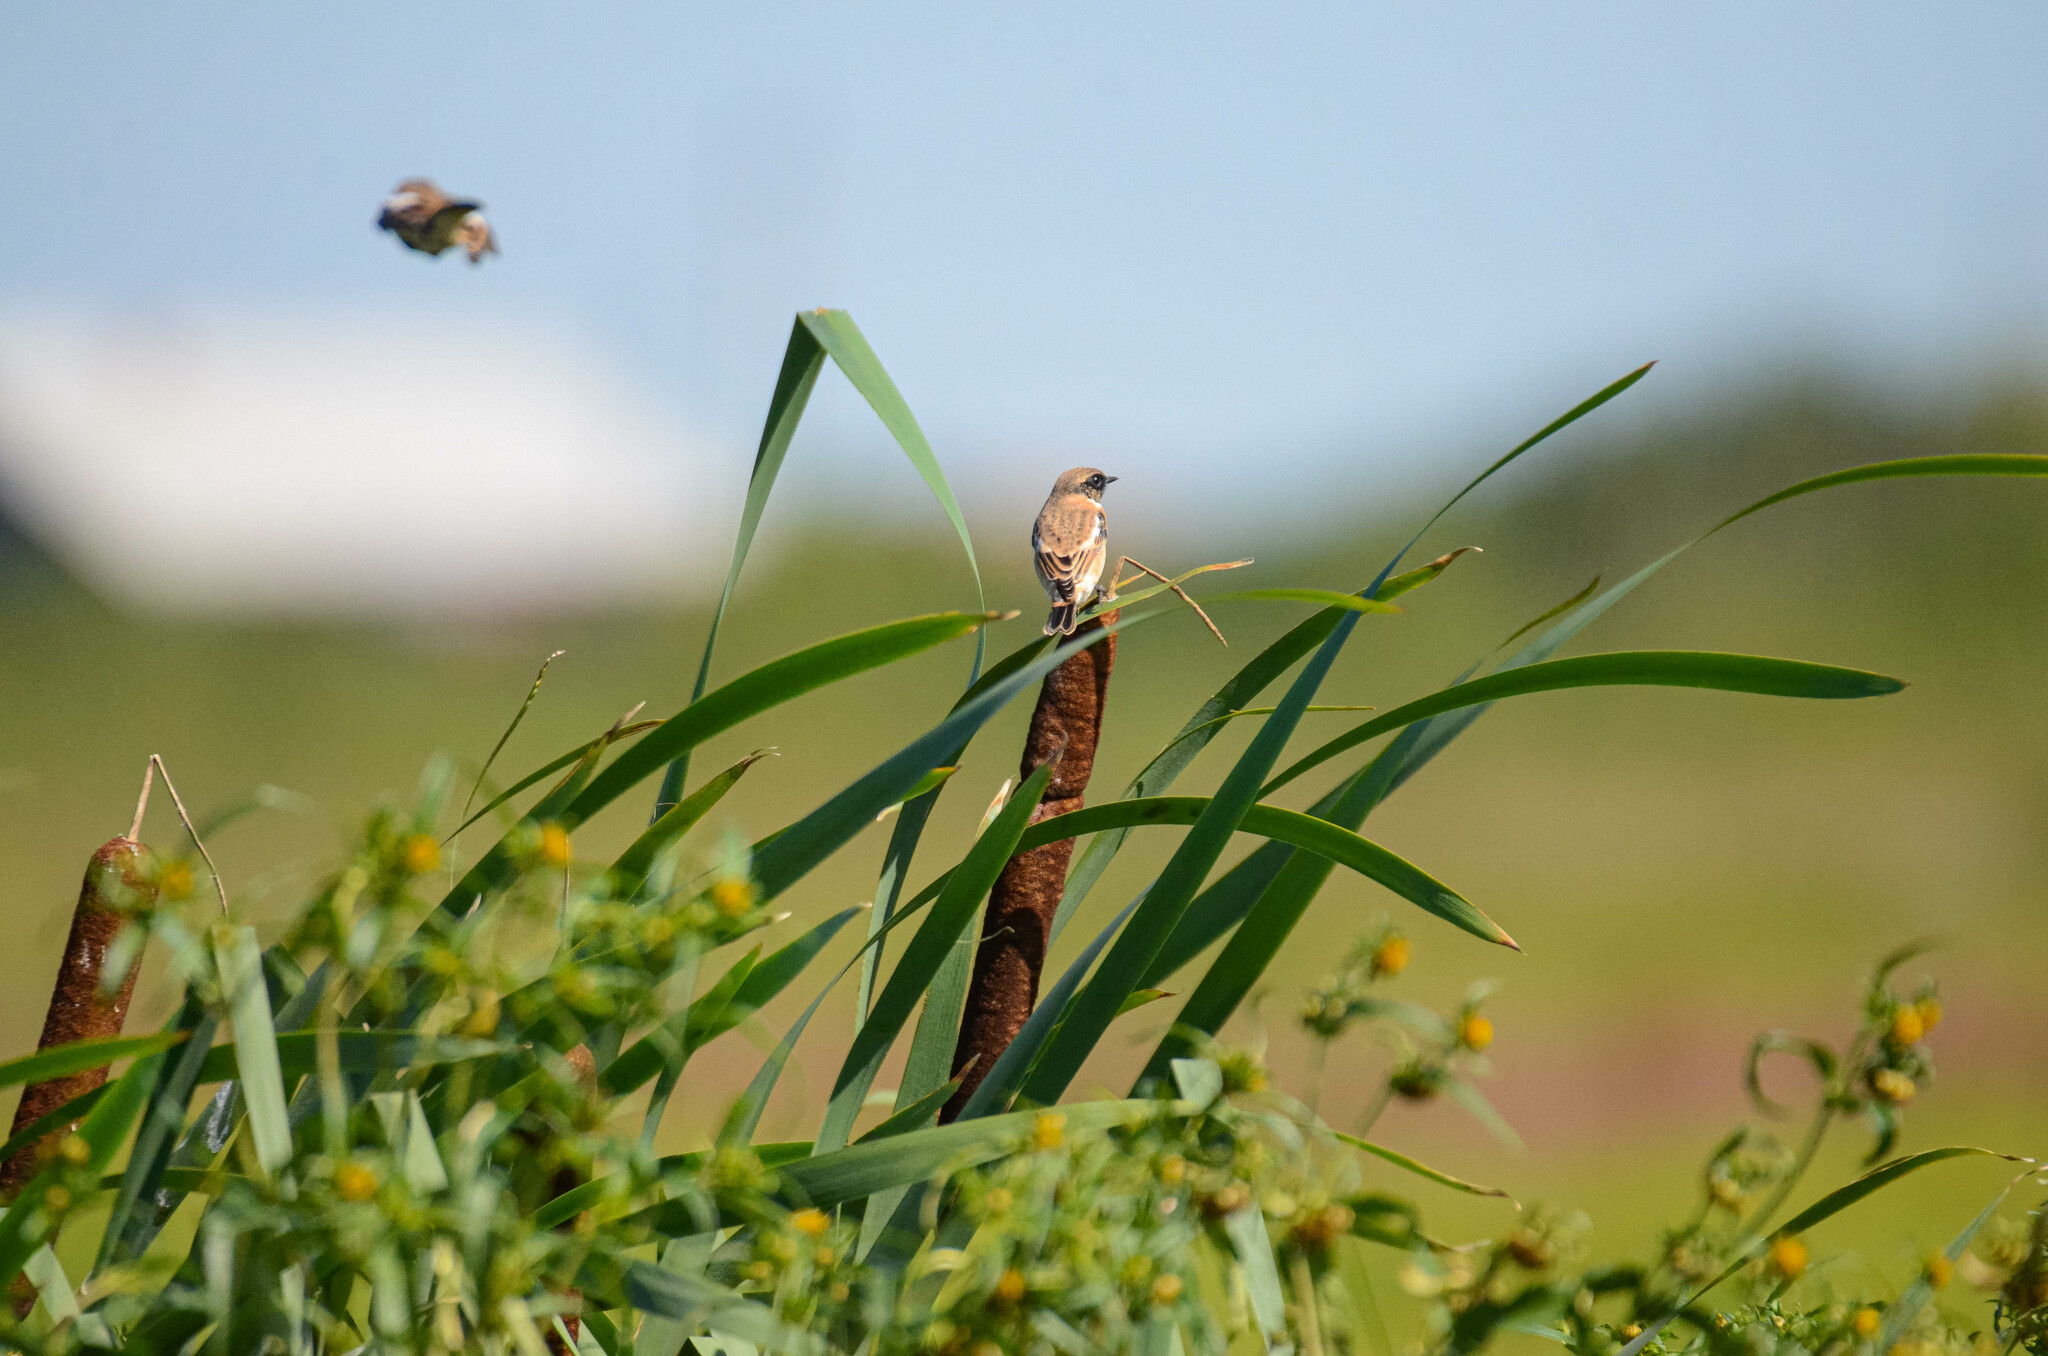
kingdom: Animalia
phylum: Chordata
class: Aves
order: Passeriformes
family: Muscicapidae
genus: Saxicola
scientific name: Saxicola maurus
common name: Siberian stonechat
